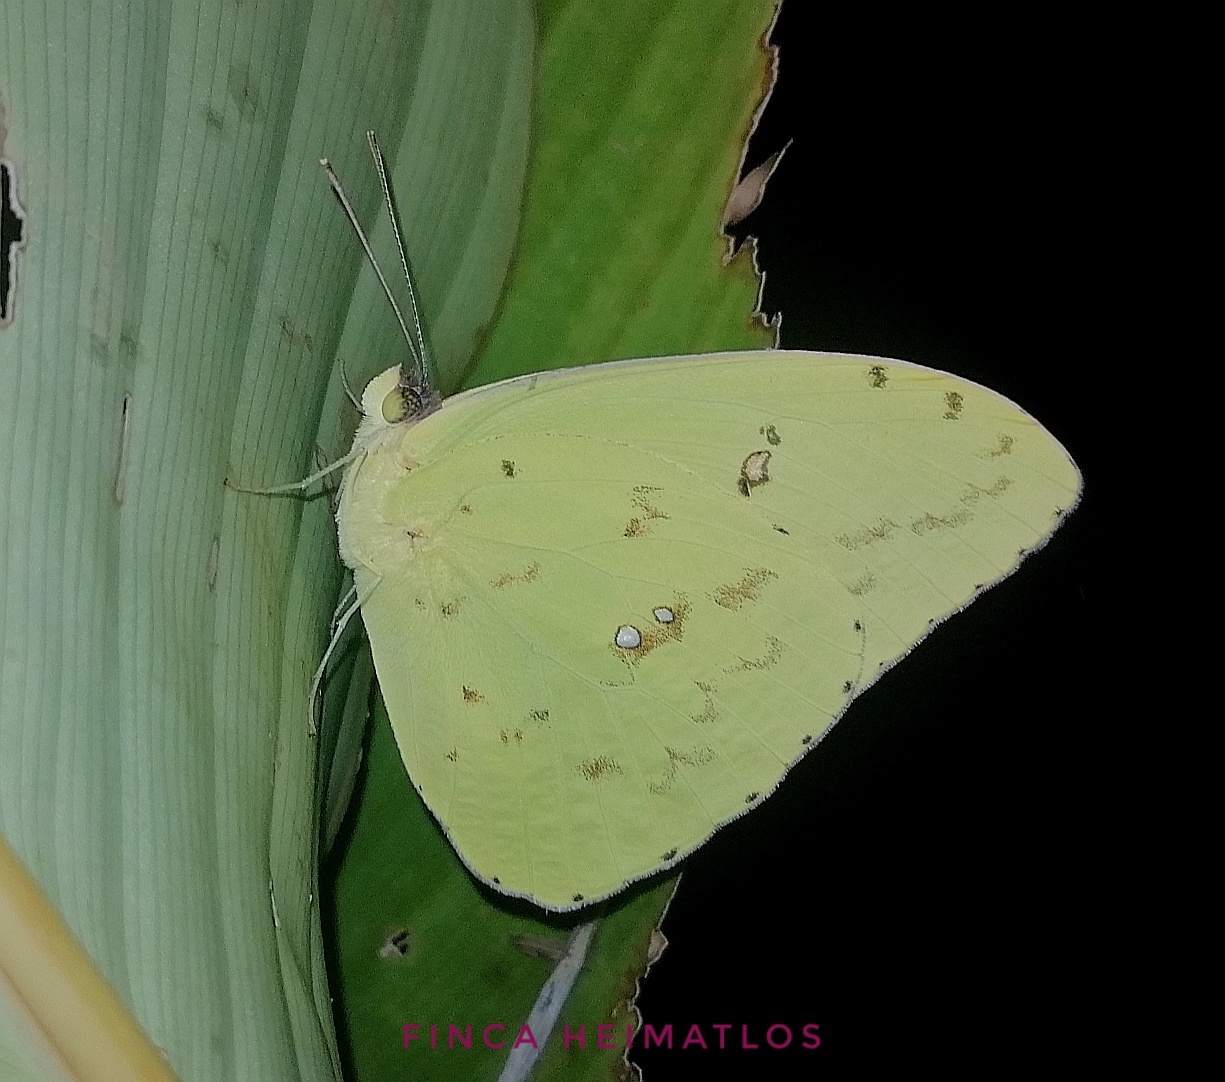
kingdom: Animalia
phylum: Arthropoda
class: Insecta
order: Lepidoptera
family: Pieridae
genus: Phoebis
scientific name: Phoebis sennae
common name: Cloudless sulphur
